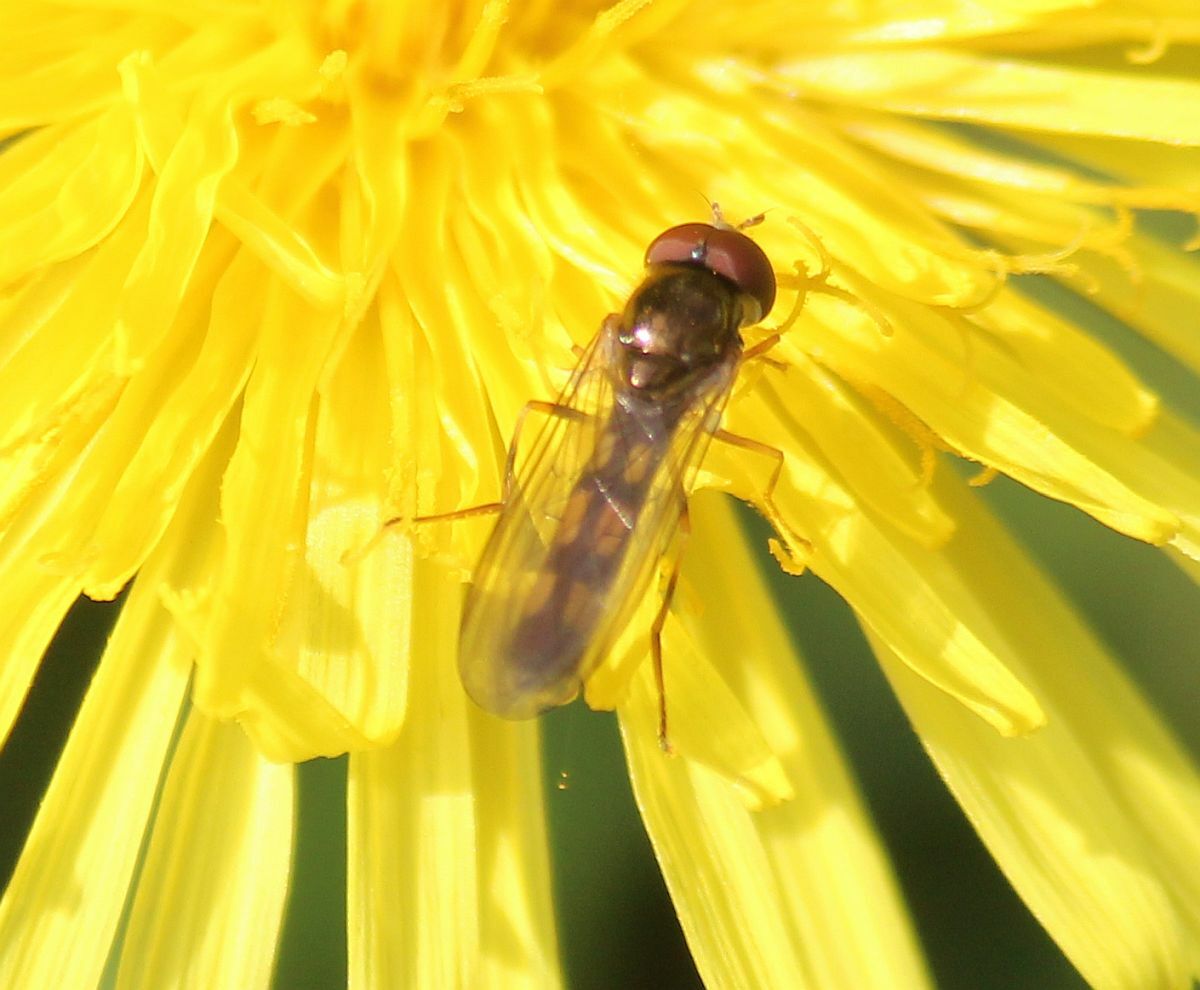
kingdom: Animalia
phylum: Arthropoda
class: Insecta
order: Diptera
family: Syrphidae
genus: Melanostoma
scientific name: Melanostoma scalare
